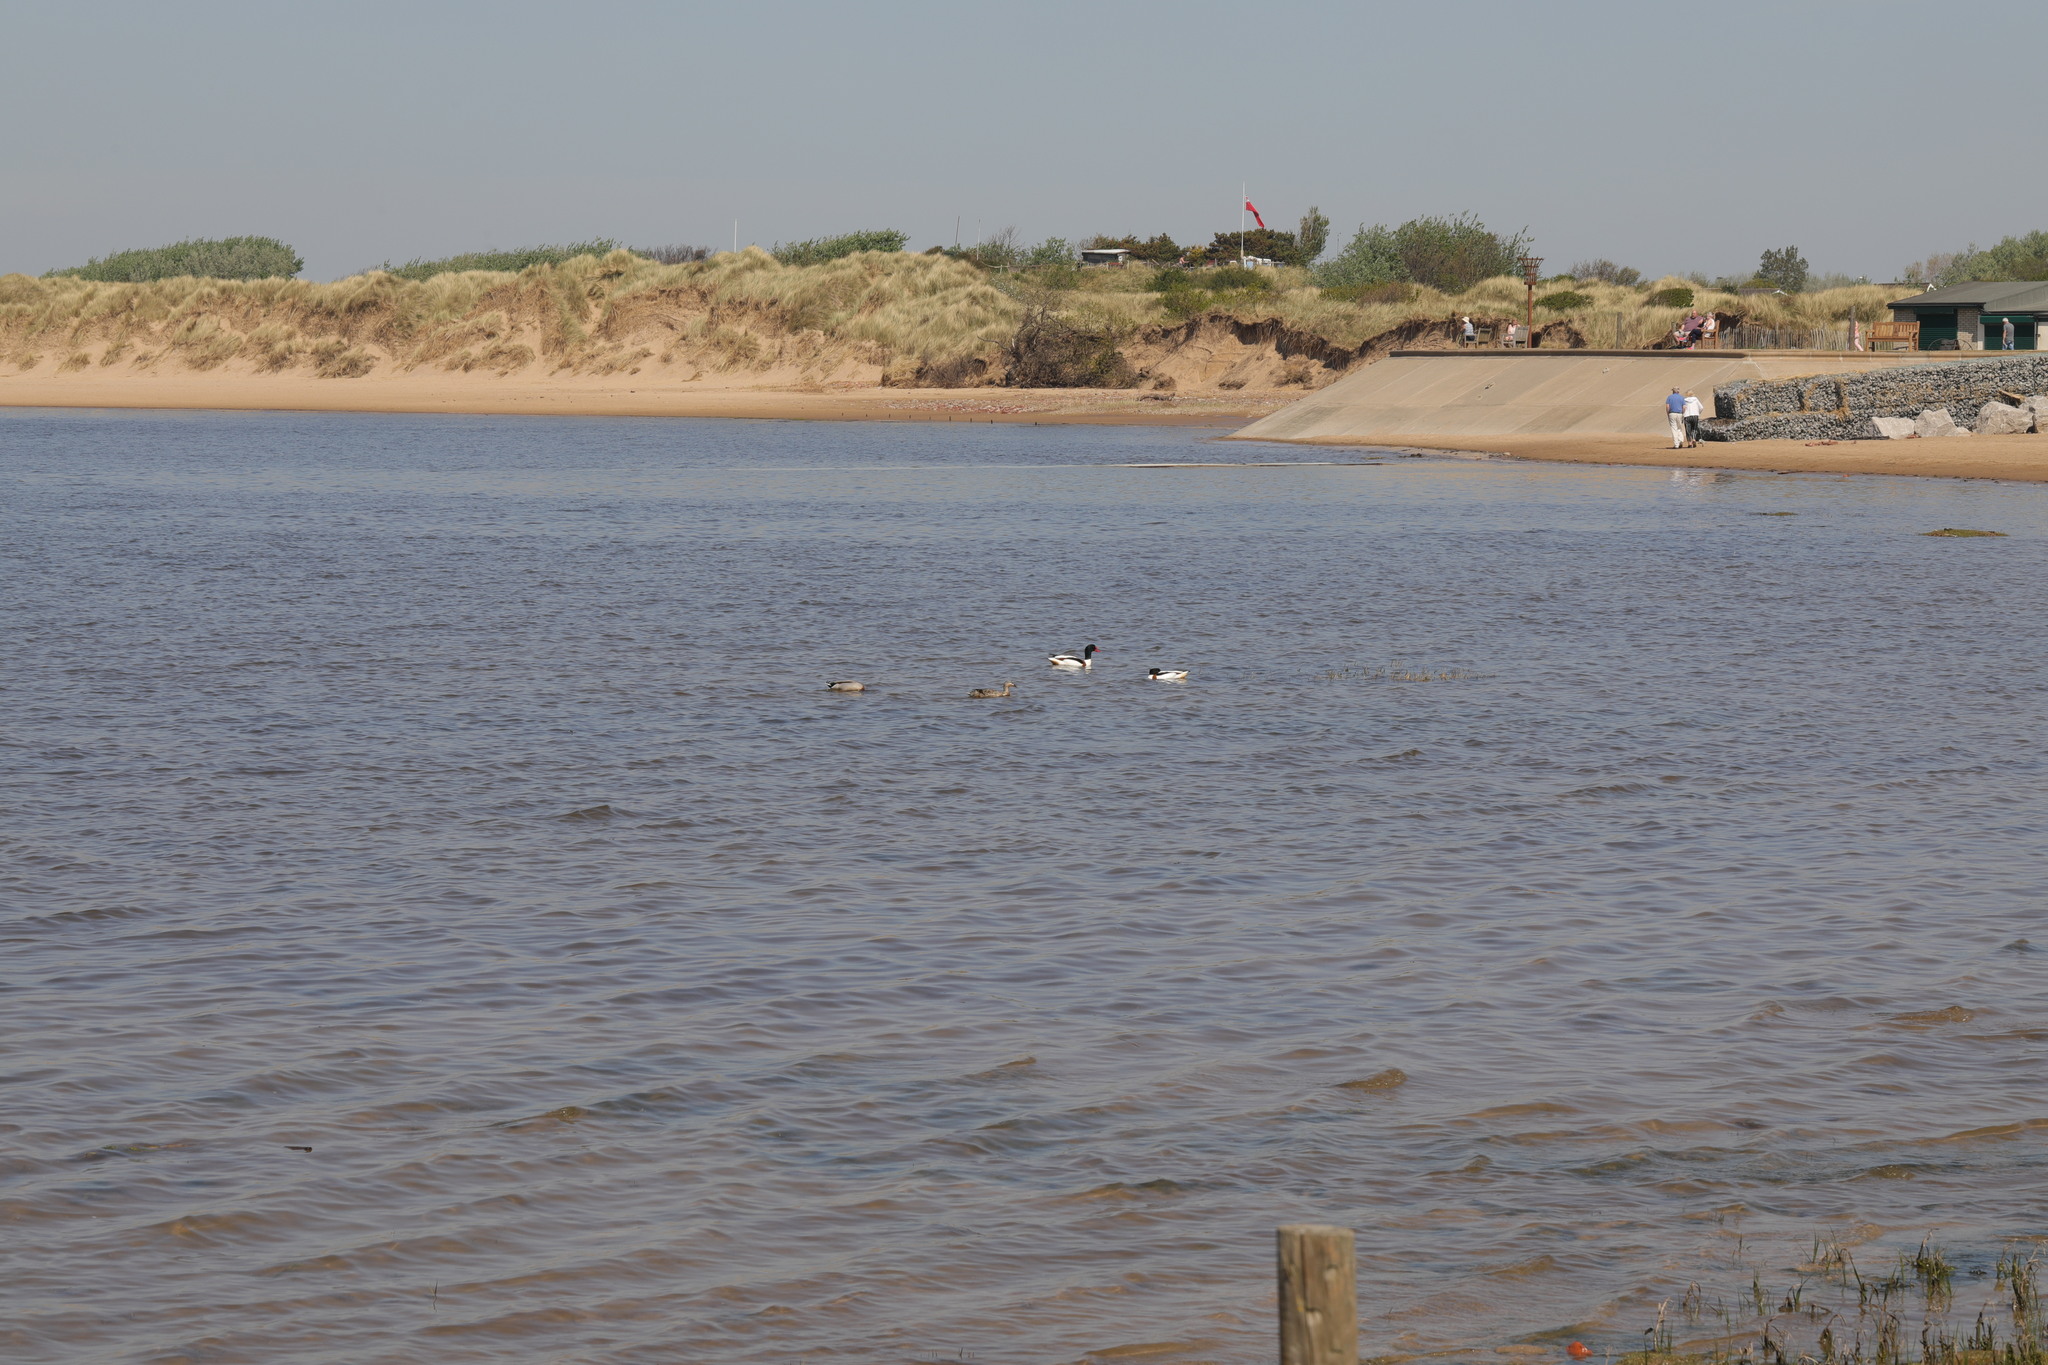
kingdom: Animalia
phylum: Chordata
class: Aves
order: Anseriformes
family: Anatidae
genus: Anas
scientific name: Anas platyrhynchos
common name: Mallard
